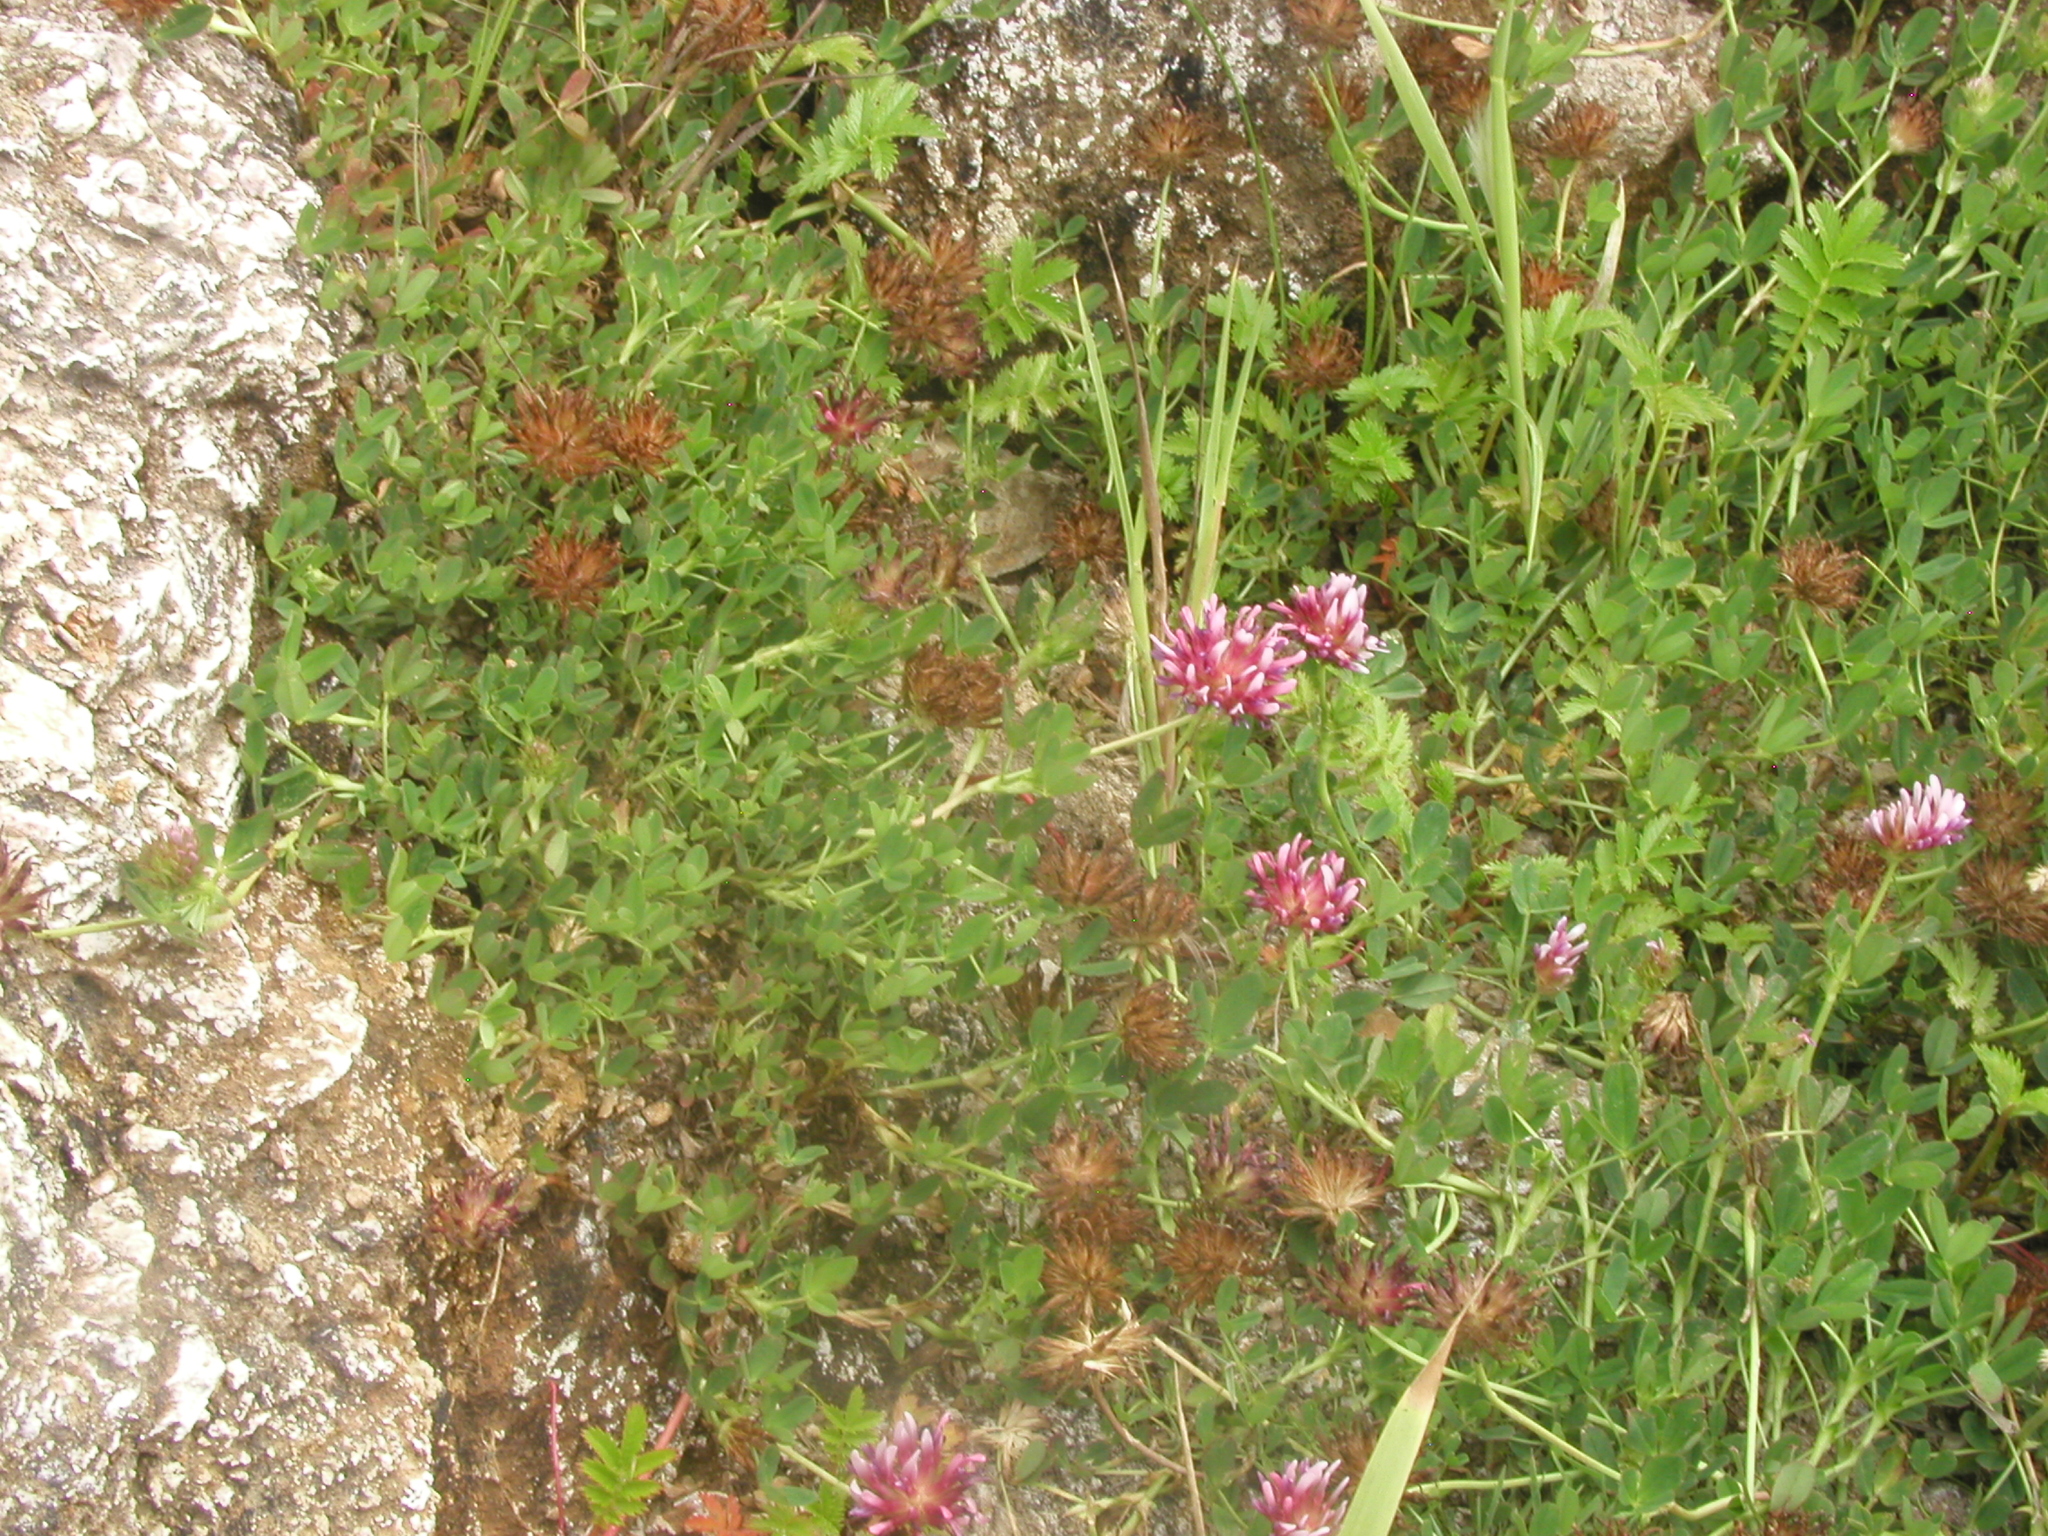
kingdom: Plantae
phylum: Tracheophyta
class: Magnoliopsida
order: Fabales
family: Fabaceae
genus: Trifolium
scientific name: Trifolium wormskioldii
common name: Springbank clover
